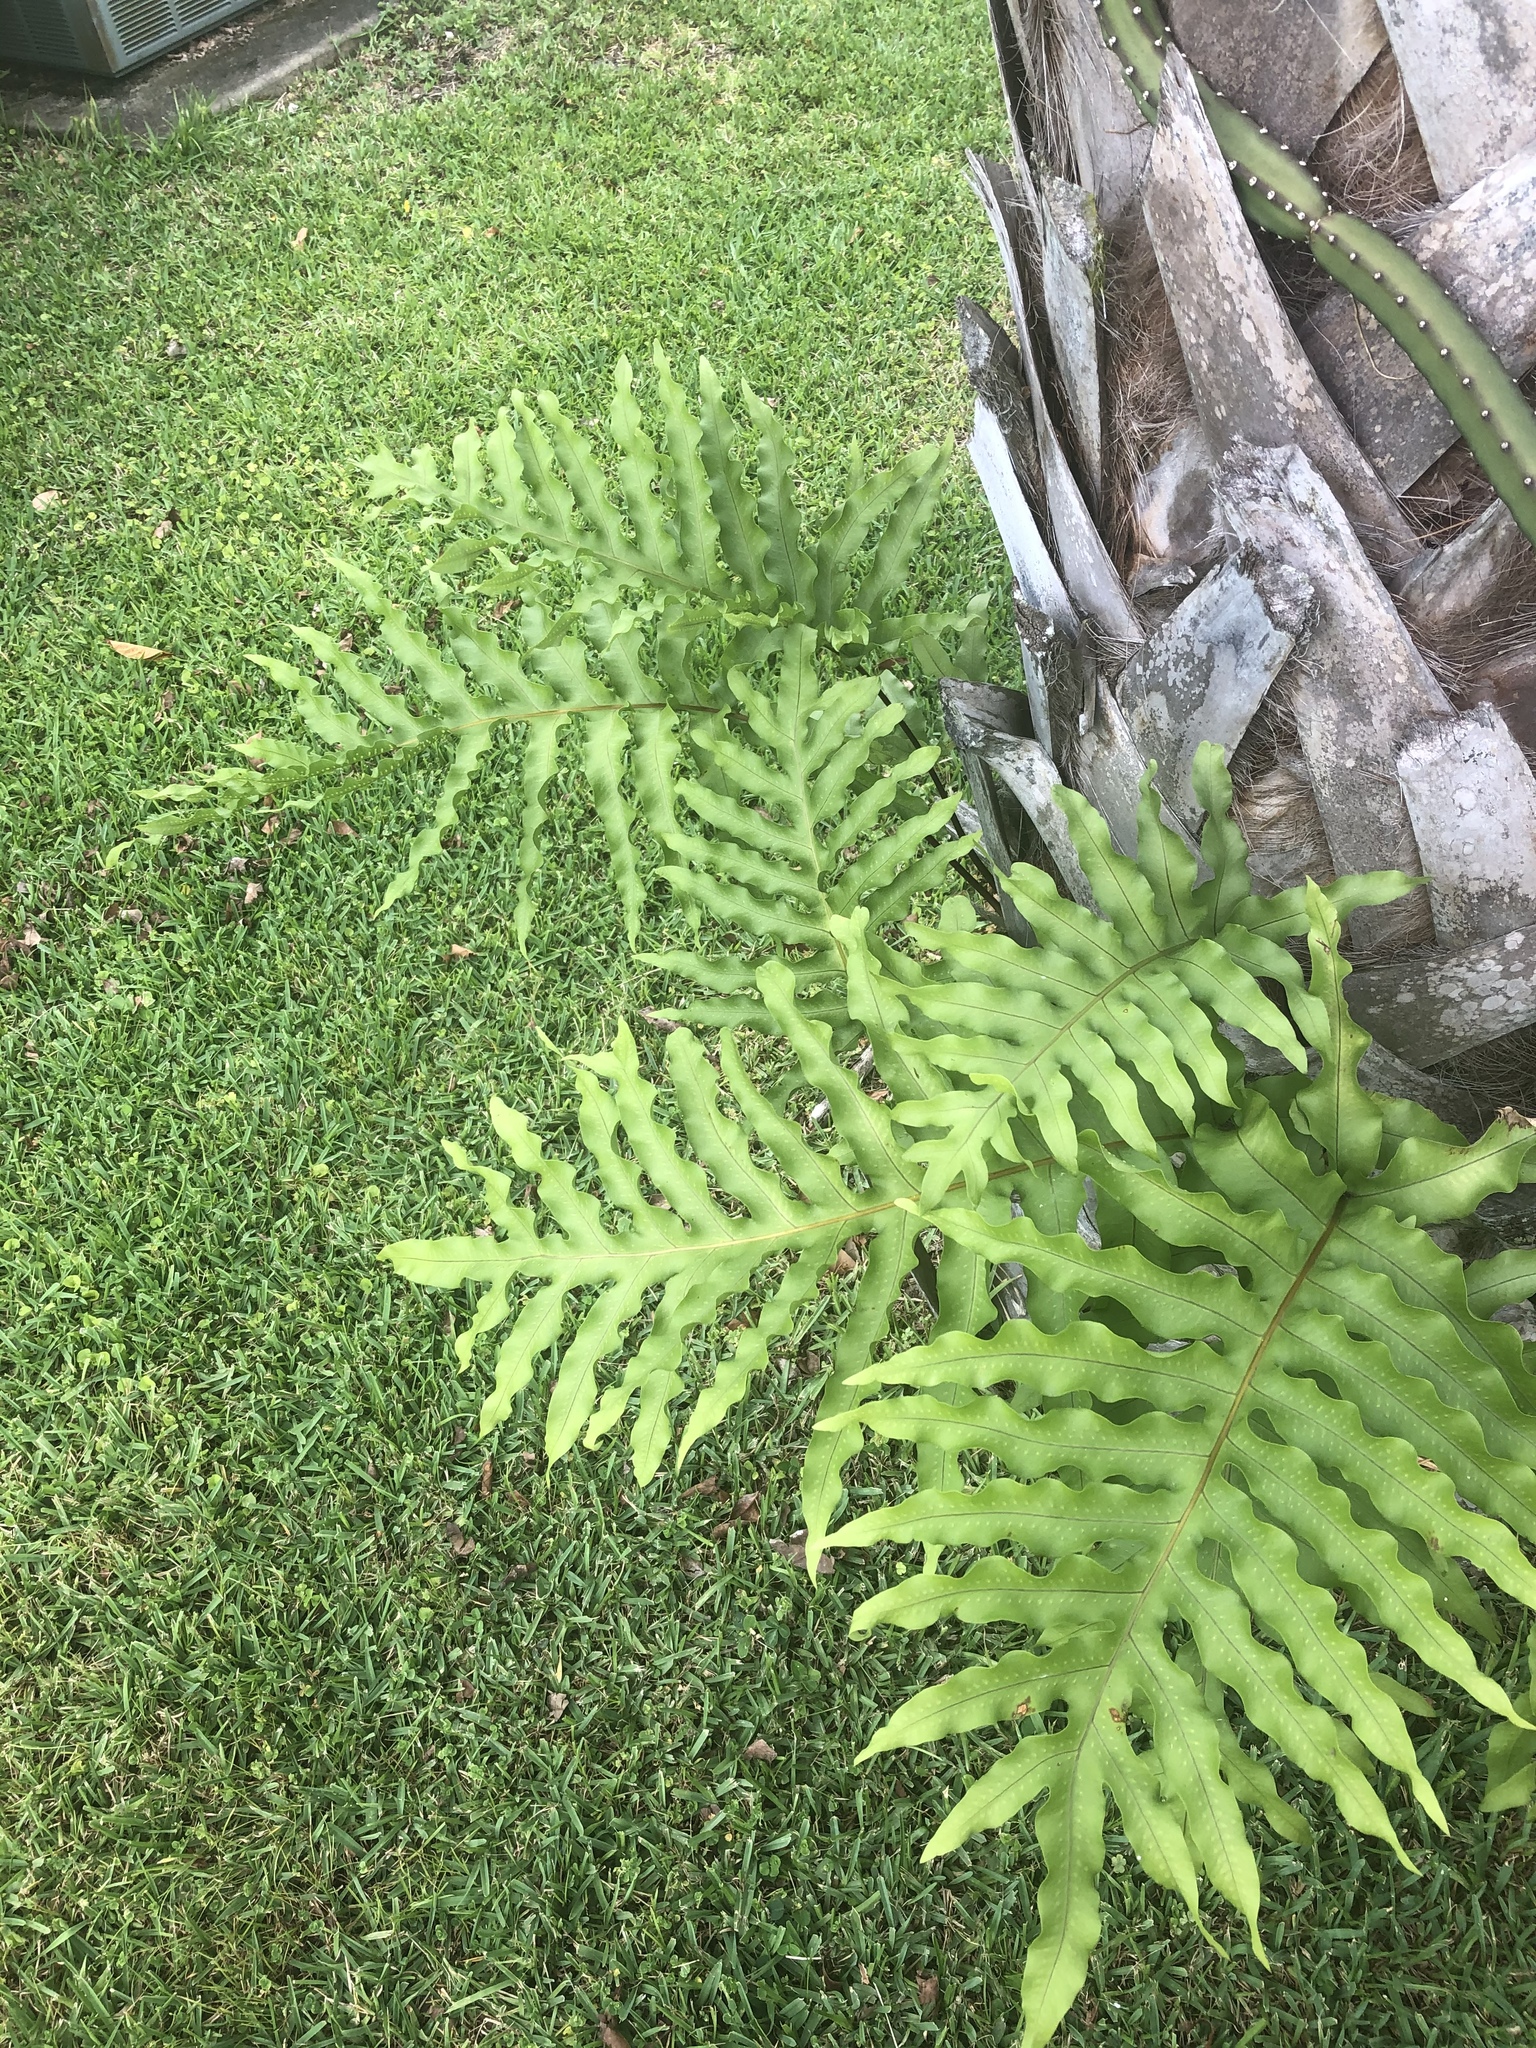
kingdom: Plantae
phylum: Tracheophyta
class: Polypodiopsida
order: Polypodiales
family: Polypodiaceae
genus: Phlebodium
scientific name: Phlebodium aureum
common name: Gold-foot fern
